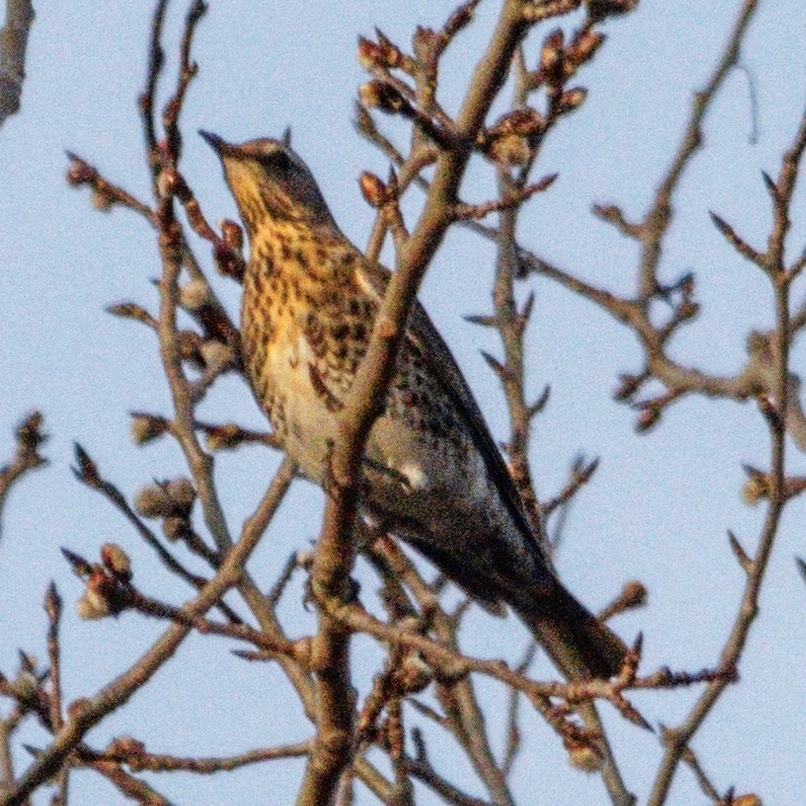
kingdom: Animalia
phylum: Chordata
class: Aves
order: Passeriformes
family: Turdidae
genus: Turdus
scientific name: Turdus pilaris
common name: Fieldfare
